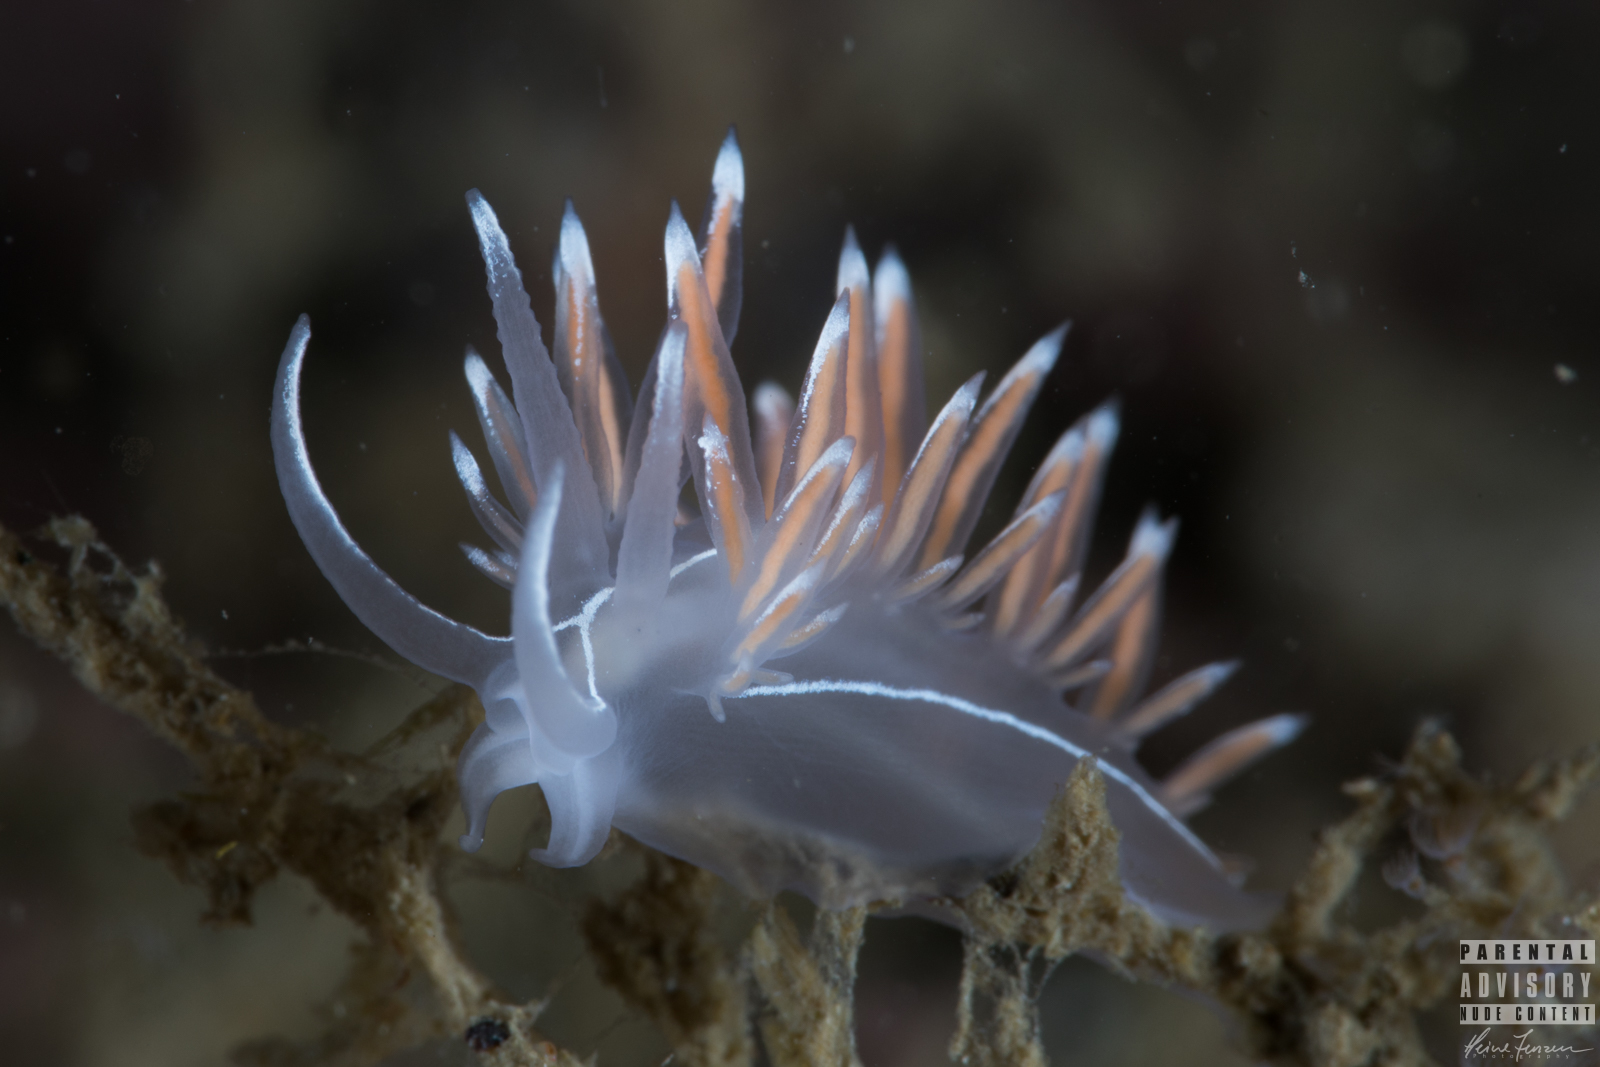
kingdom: Animalia
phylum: Mollusca
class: Gastropoda
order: Nudibranchia
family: Coryphellidae
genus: Coryphella
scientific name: Coryphella lineata
